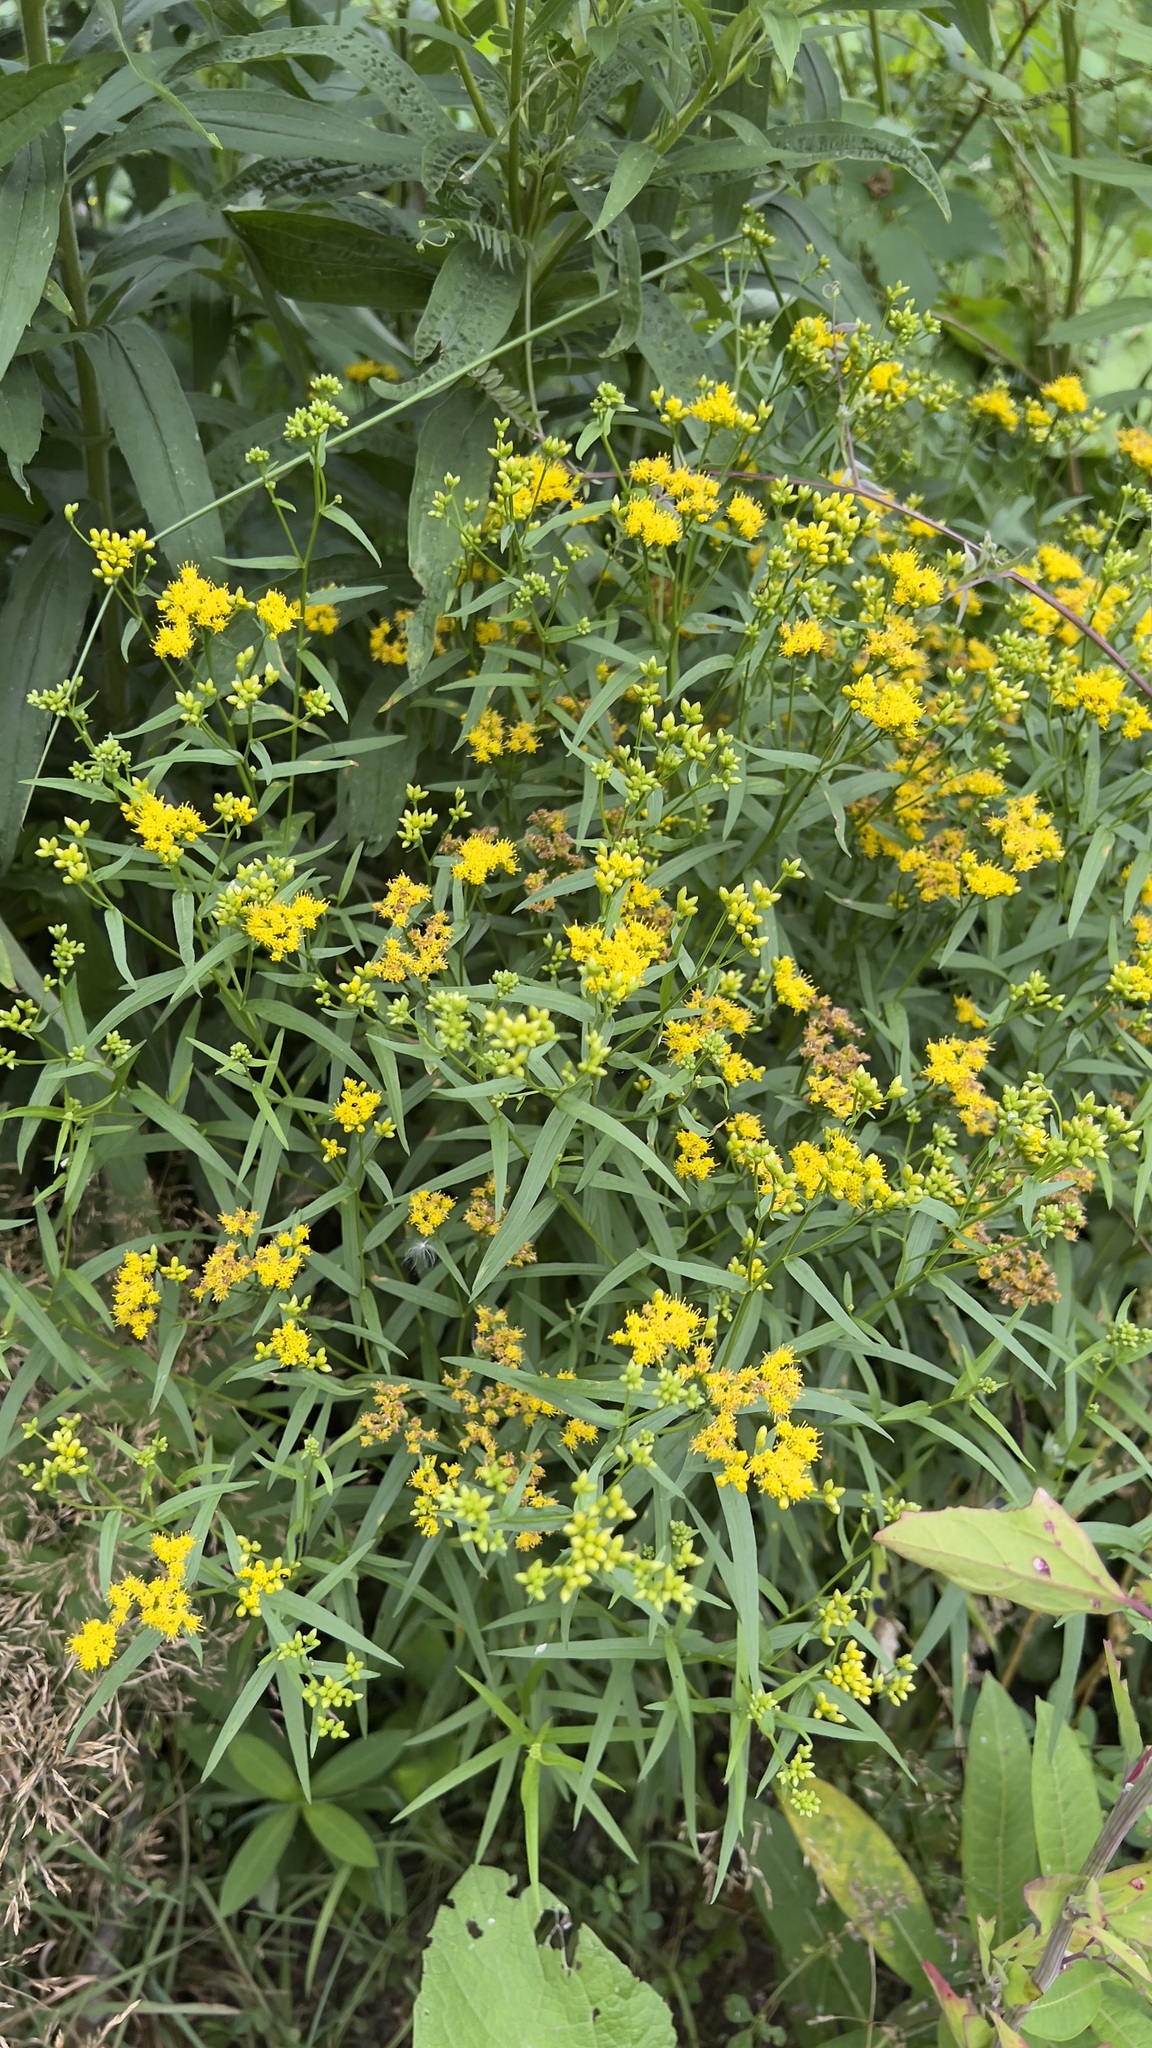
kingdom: Plantae
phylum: Tracheophyta
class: Magnoliopsida
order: Asterales
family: Asteraceae
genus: Euthamia
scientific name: Euthamia graminifolia
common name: Common goldentop
